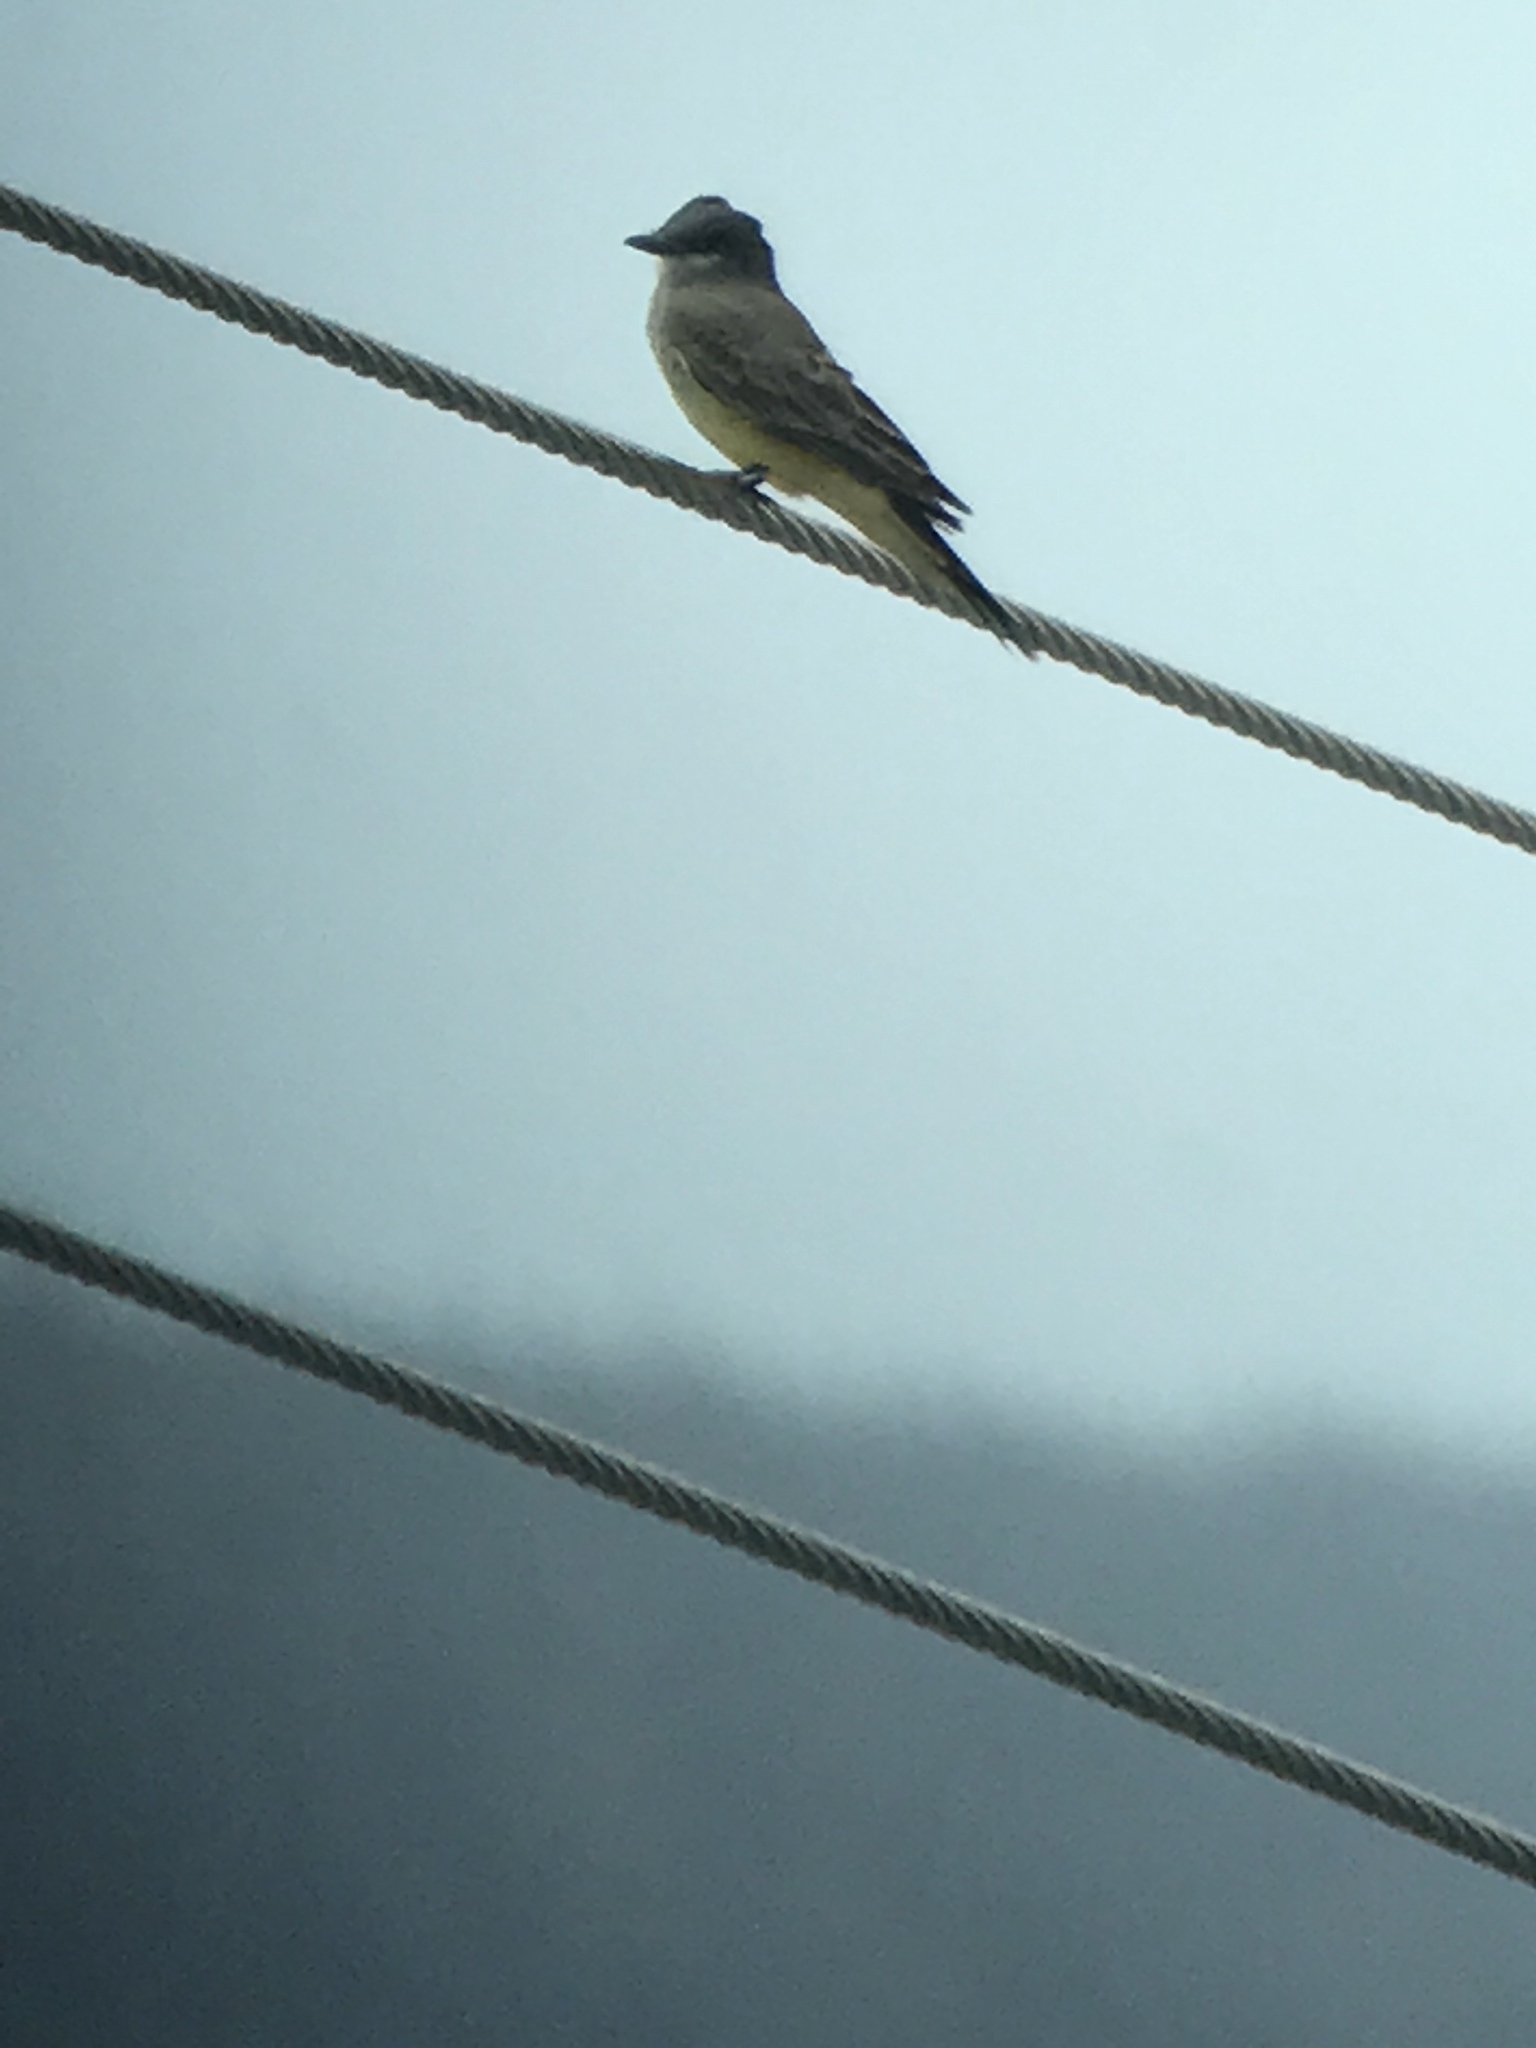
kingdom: Animalia
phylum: Chordata
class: Aves
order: Passeriformes
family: Tyrannidae
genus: Tyrannus
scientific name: Tyrannus vociferans
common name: Cassin's kingbird
